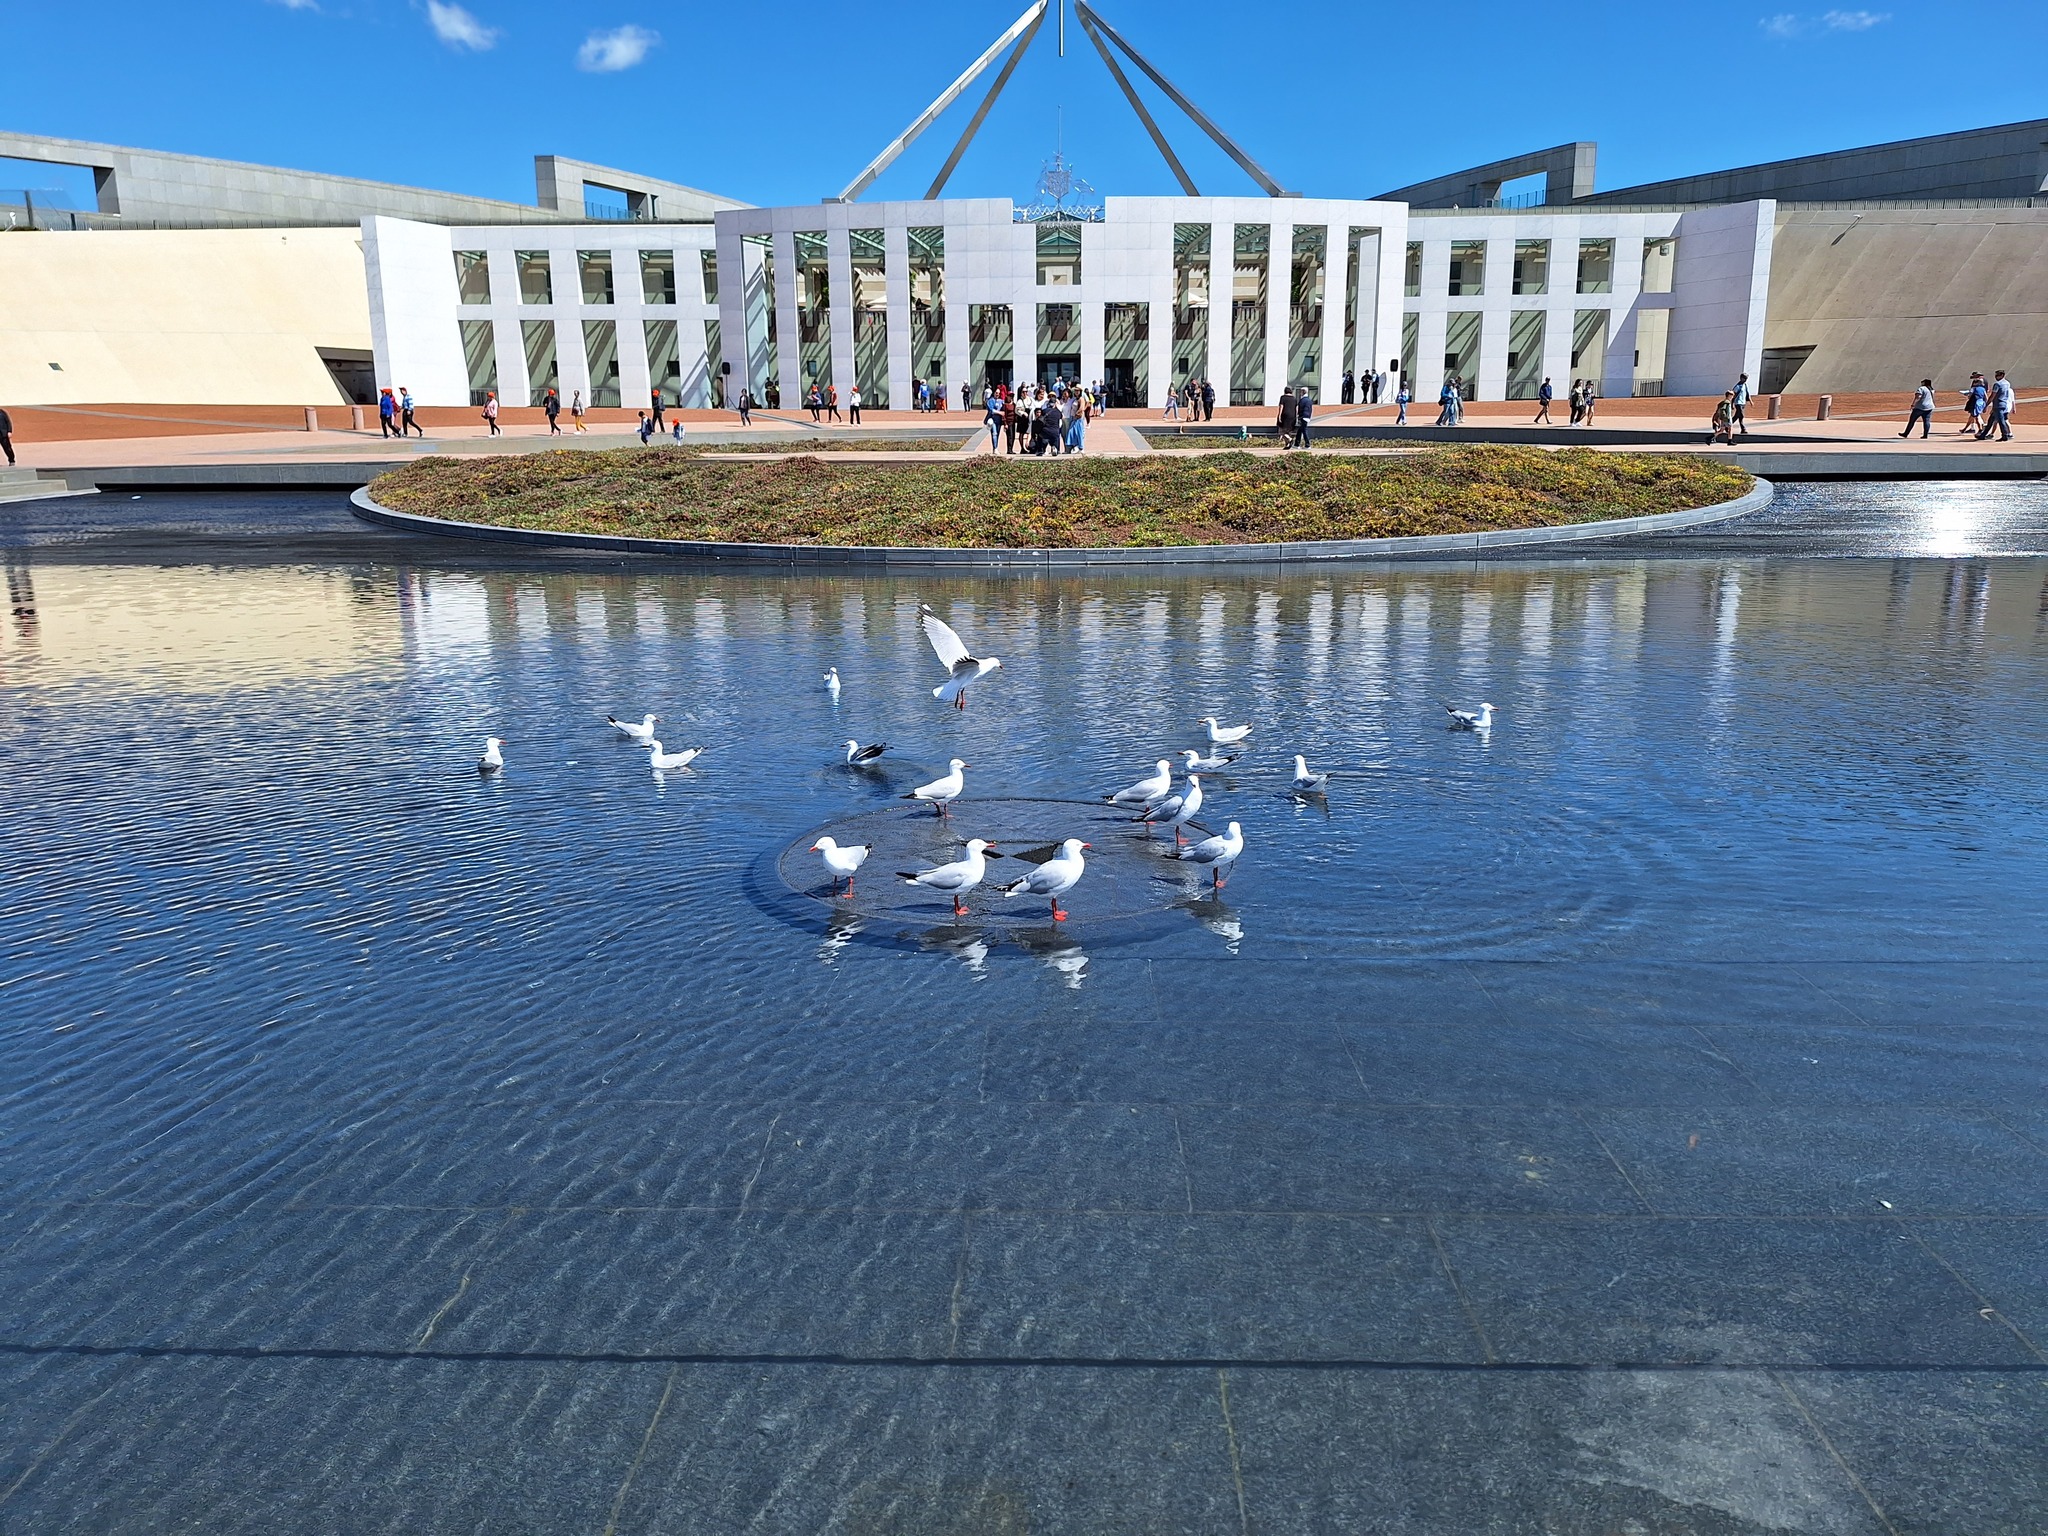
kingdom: Animalia
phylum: Chordata
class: Aves
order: Charadriiformes
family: Laridae
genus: Chroicocephalus
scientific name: Chroicocephalus novaehollandiae
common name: Silver gull
